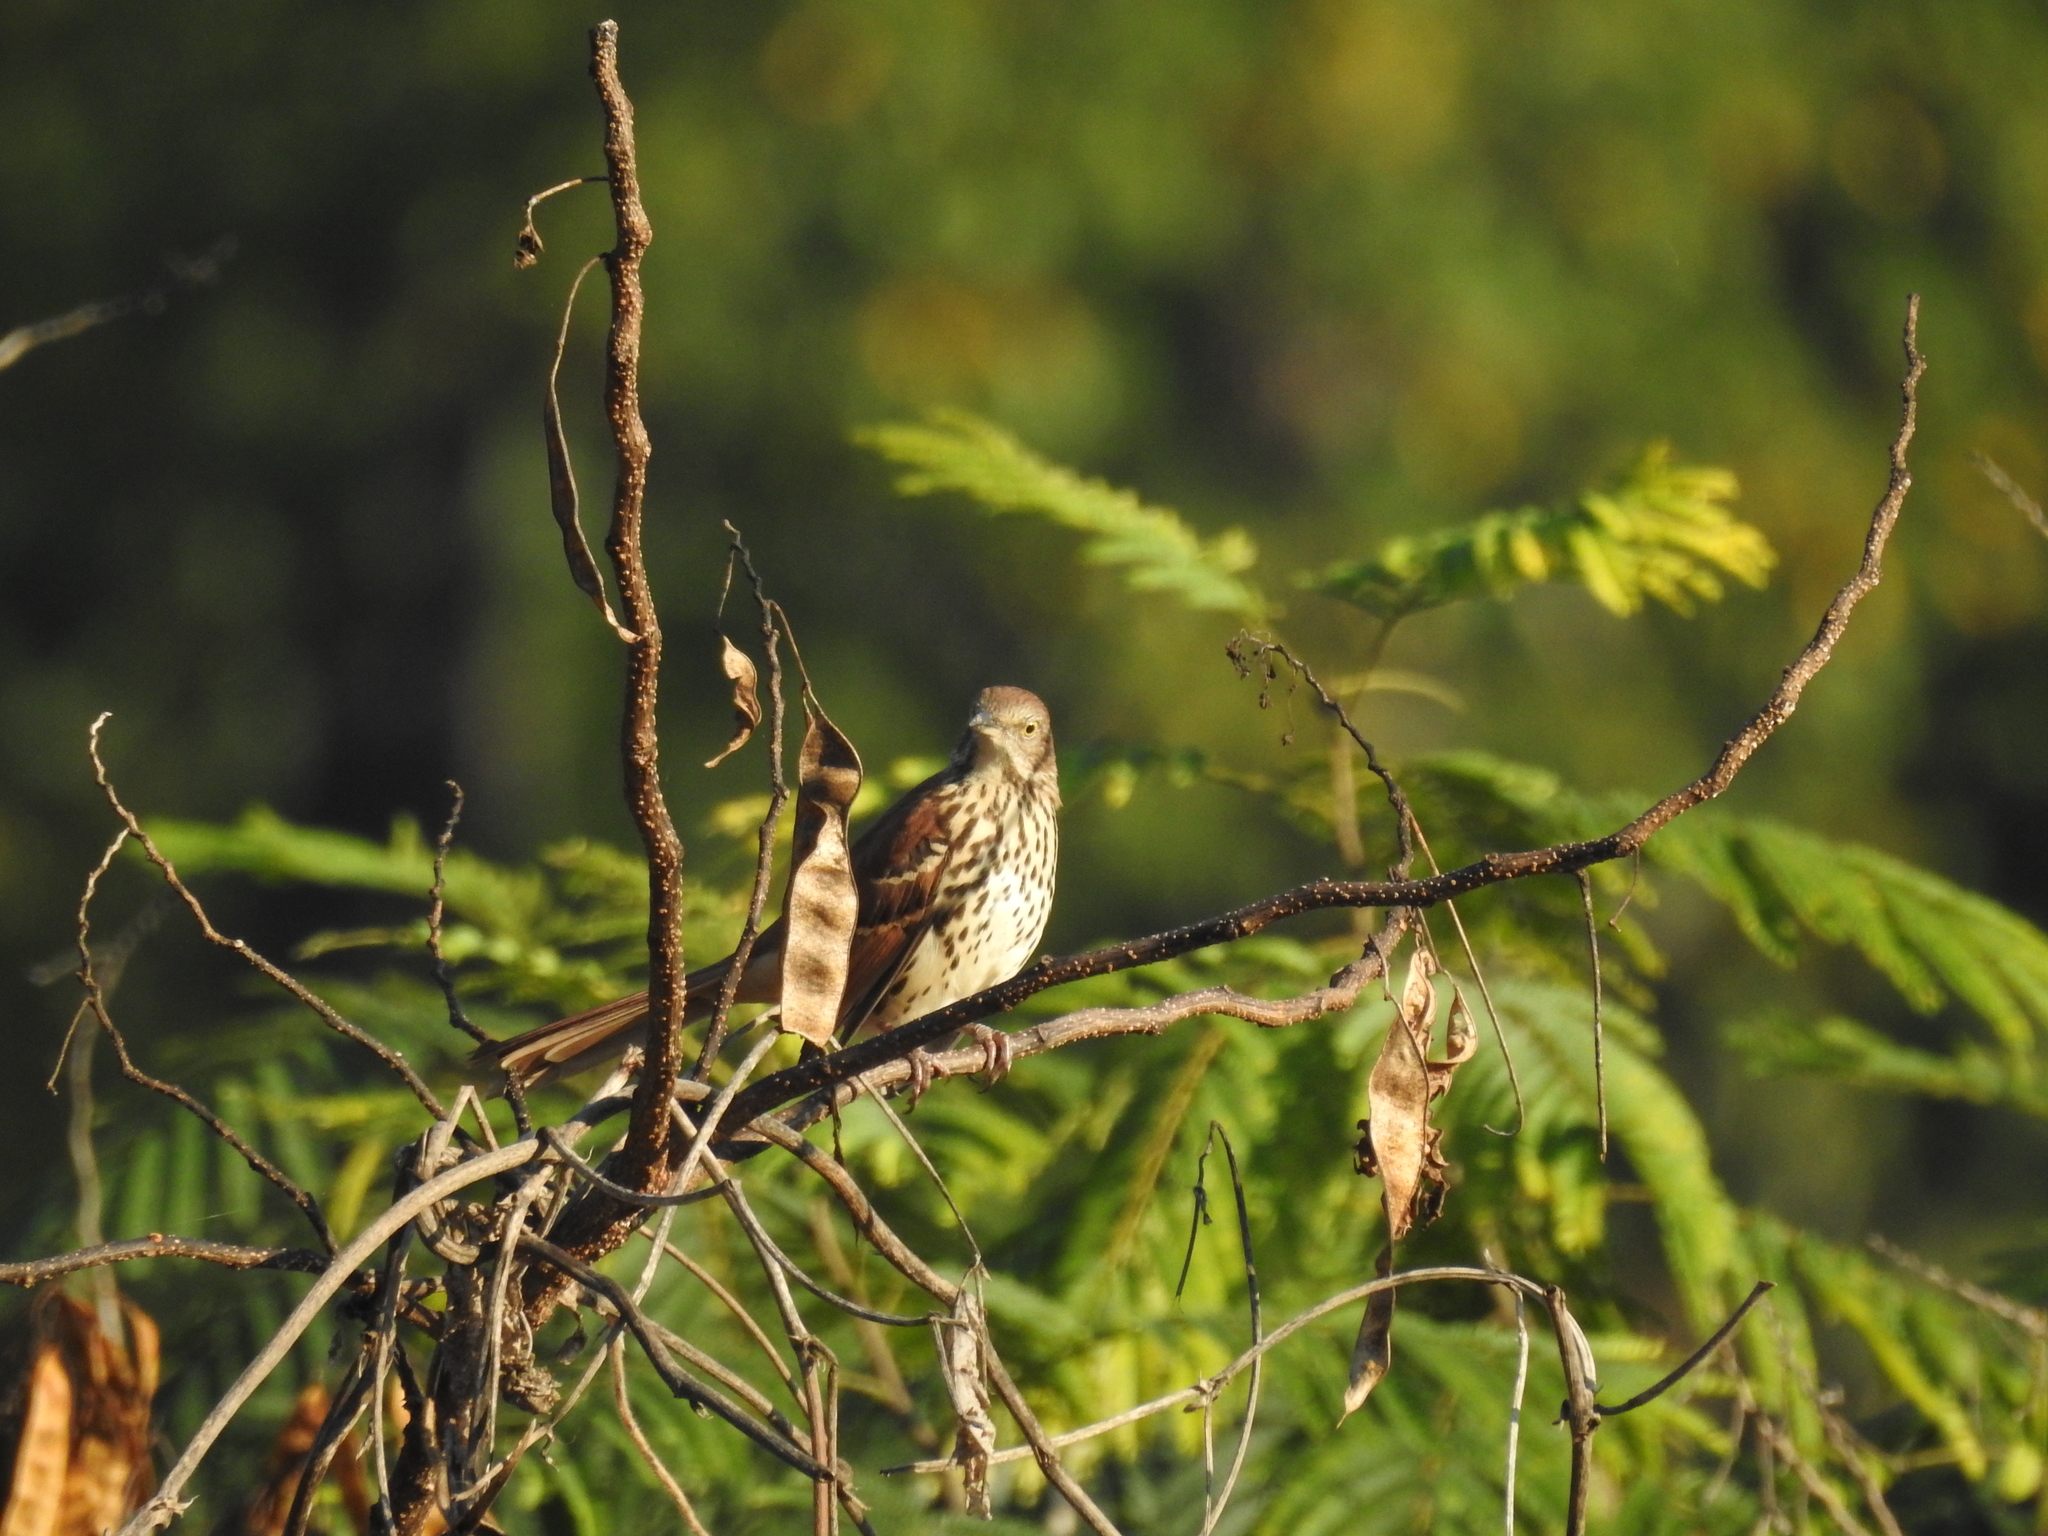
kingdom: Animalia
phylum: Chordata
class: Aves
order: Passeriformes
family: Mimidae
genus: Toxostoma
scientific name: Toxostoma rufum
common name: Brown thrasher
